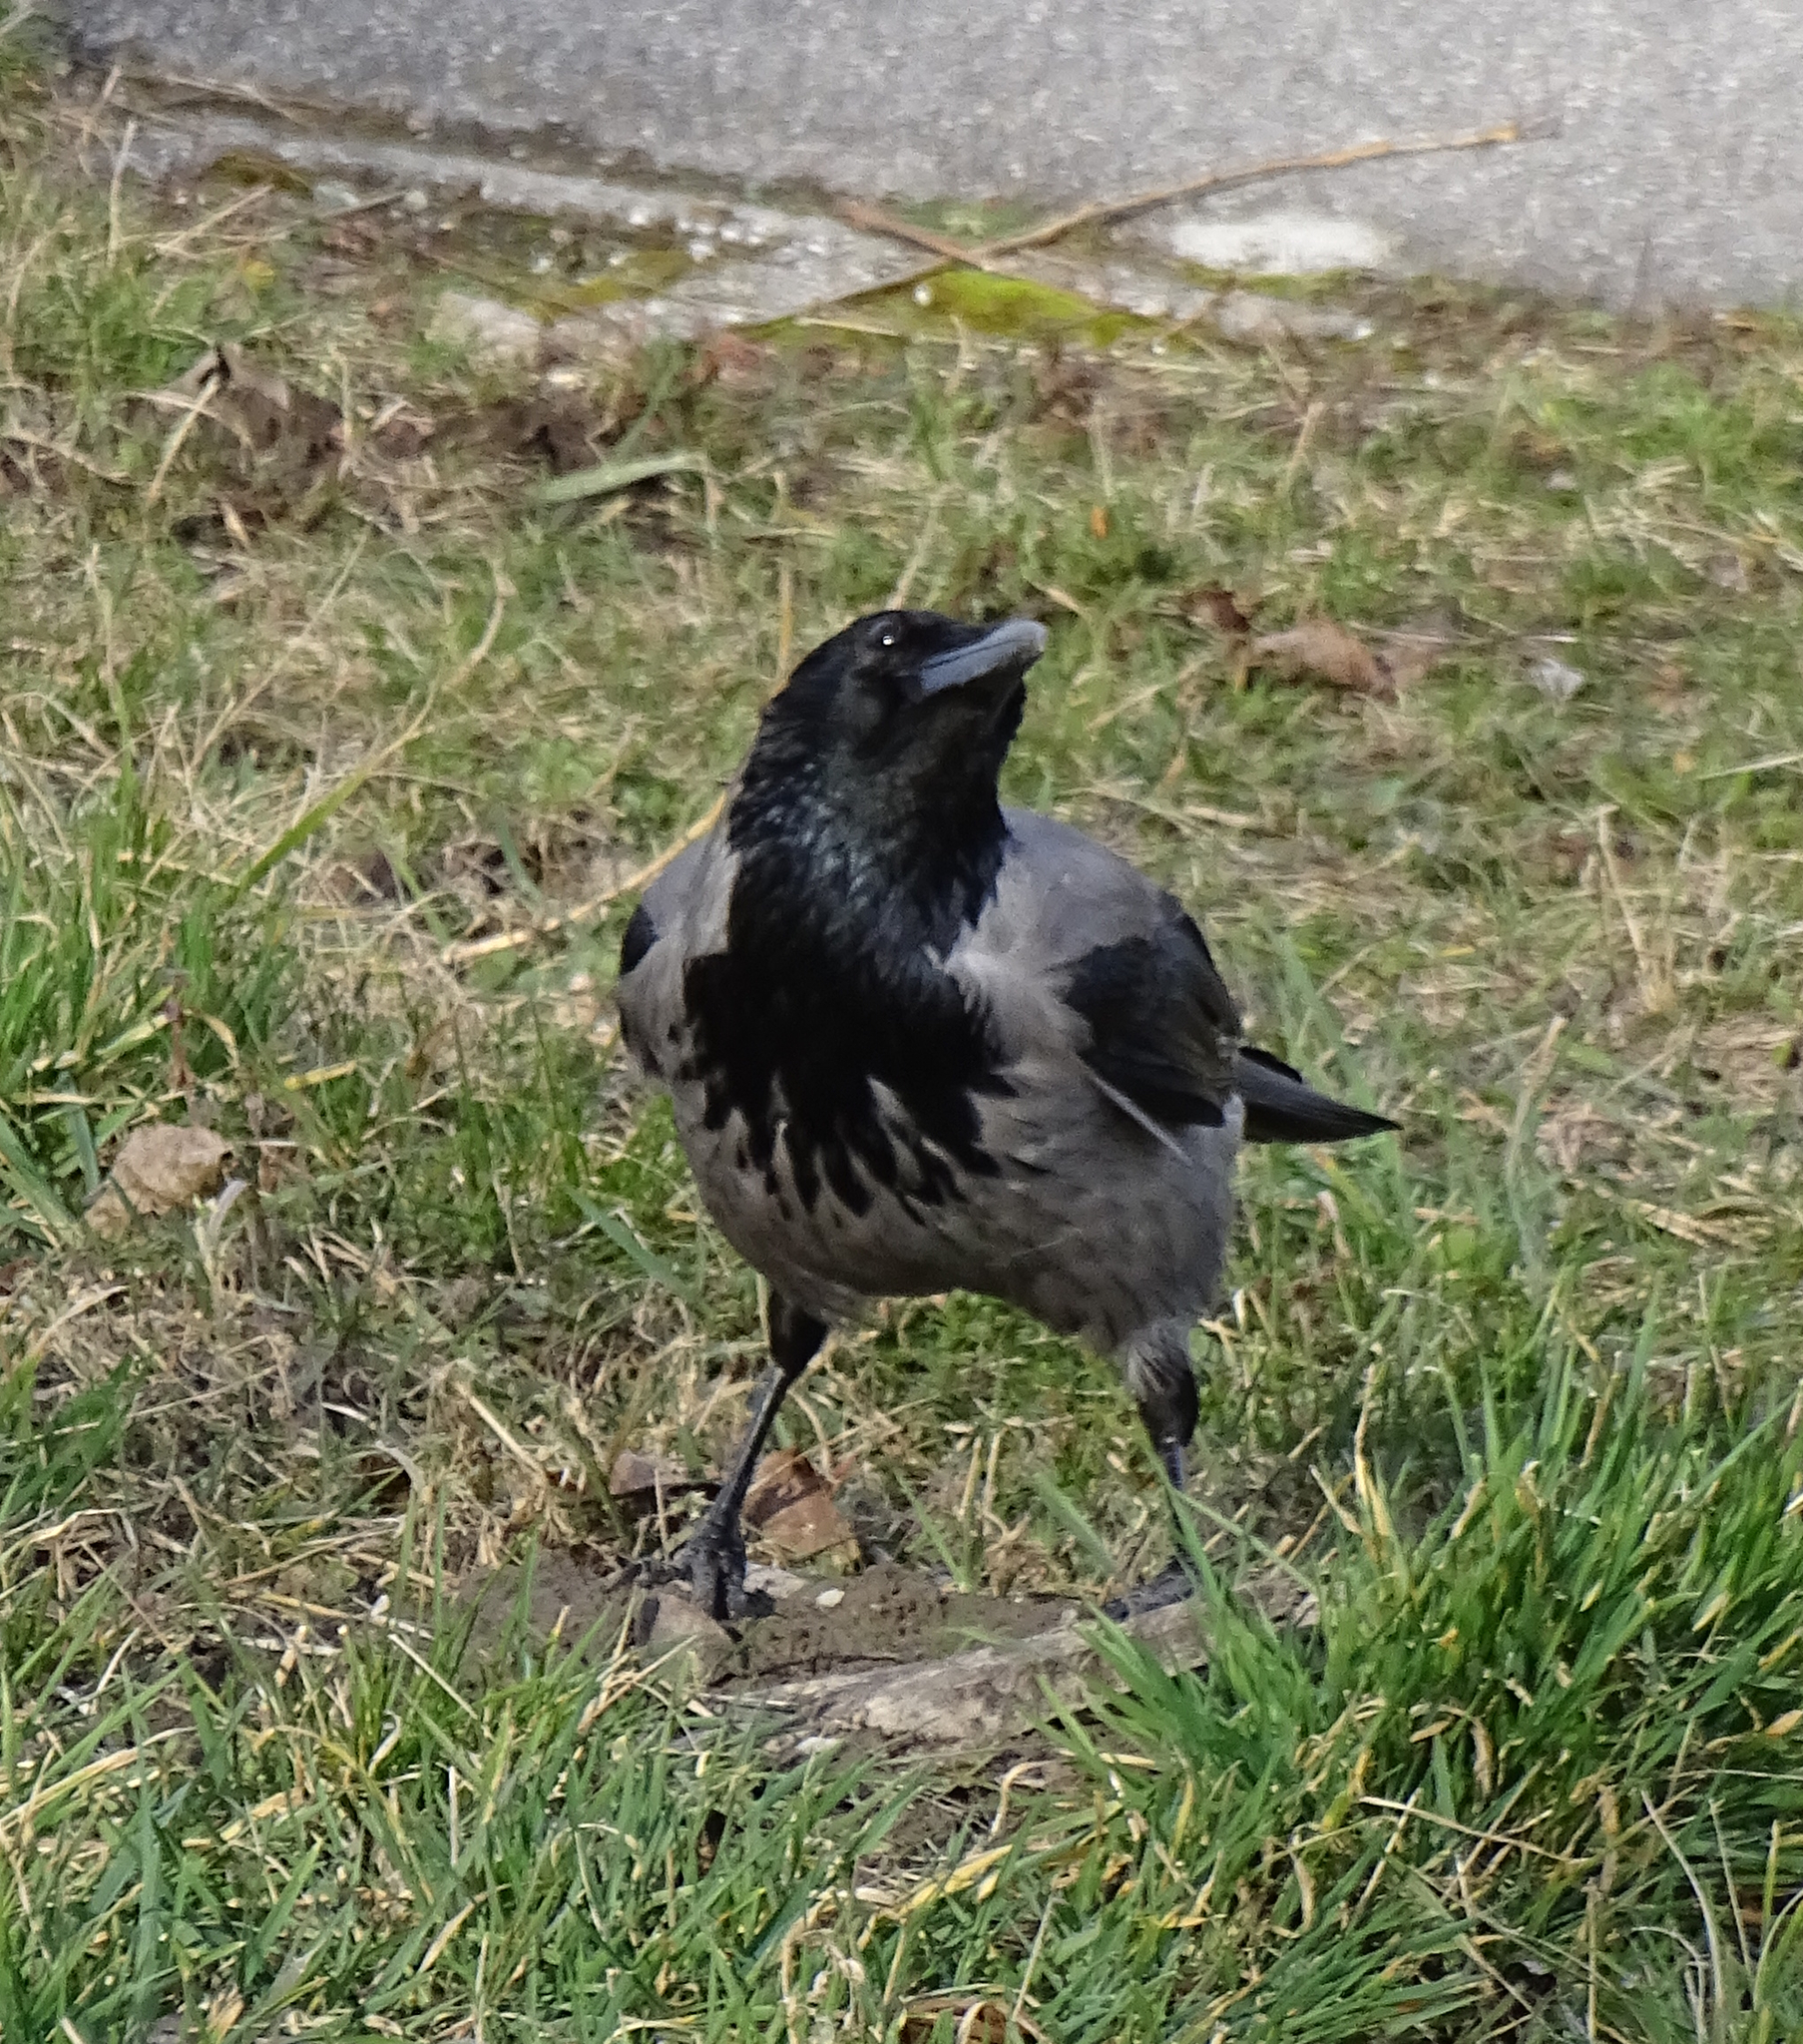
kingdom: Animalia
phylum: Chordata
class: Aves
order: Passeriformes
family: Corvidae
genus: Corvus
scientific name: Corvus cornix
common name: Hooded crow
